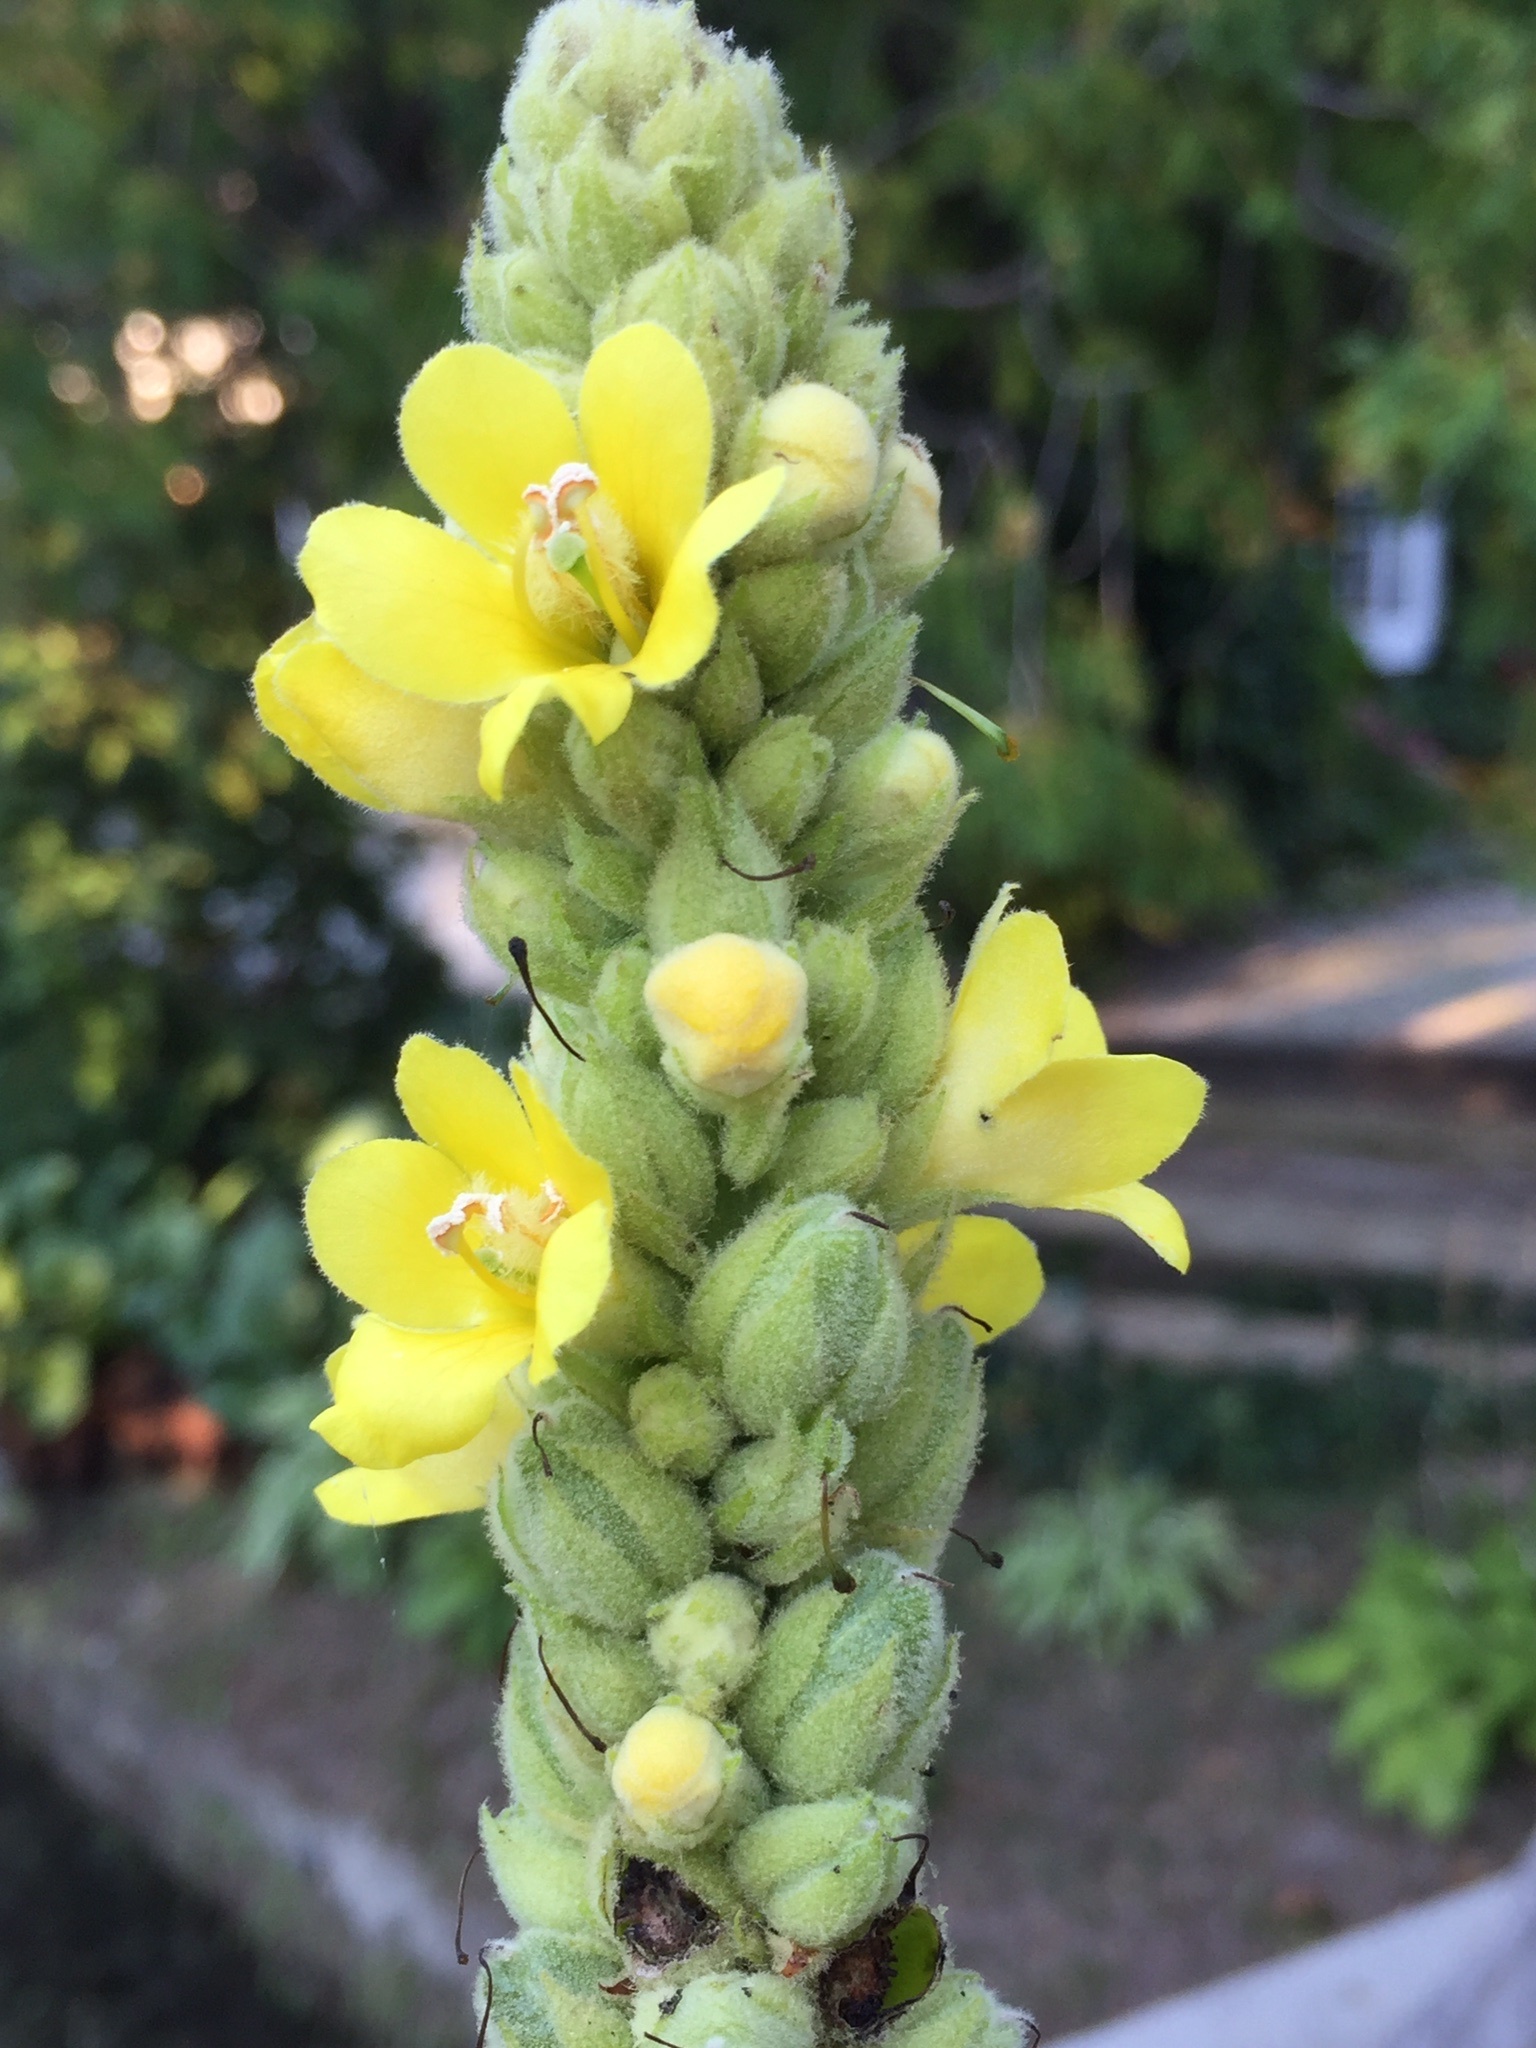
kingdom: Plantae
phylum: Tracheophyta
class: Magnoliopsida
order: Lamiales
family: Scrophulariaceae
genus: Verbascum
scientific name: Verbascum thapsus
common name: Common mullein
